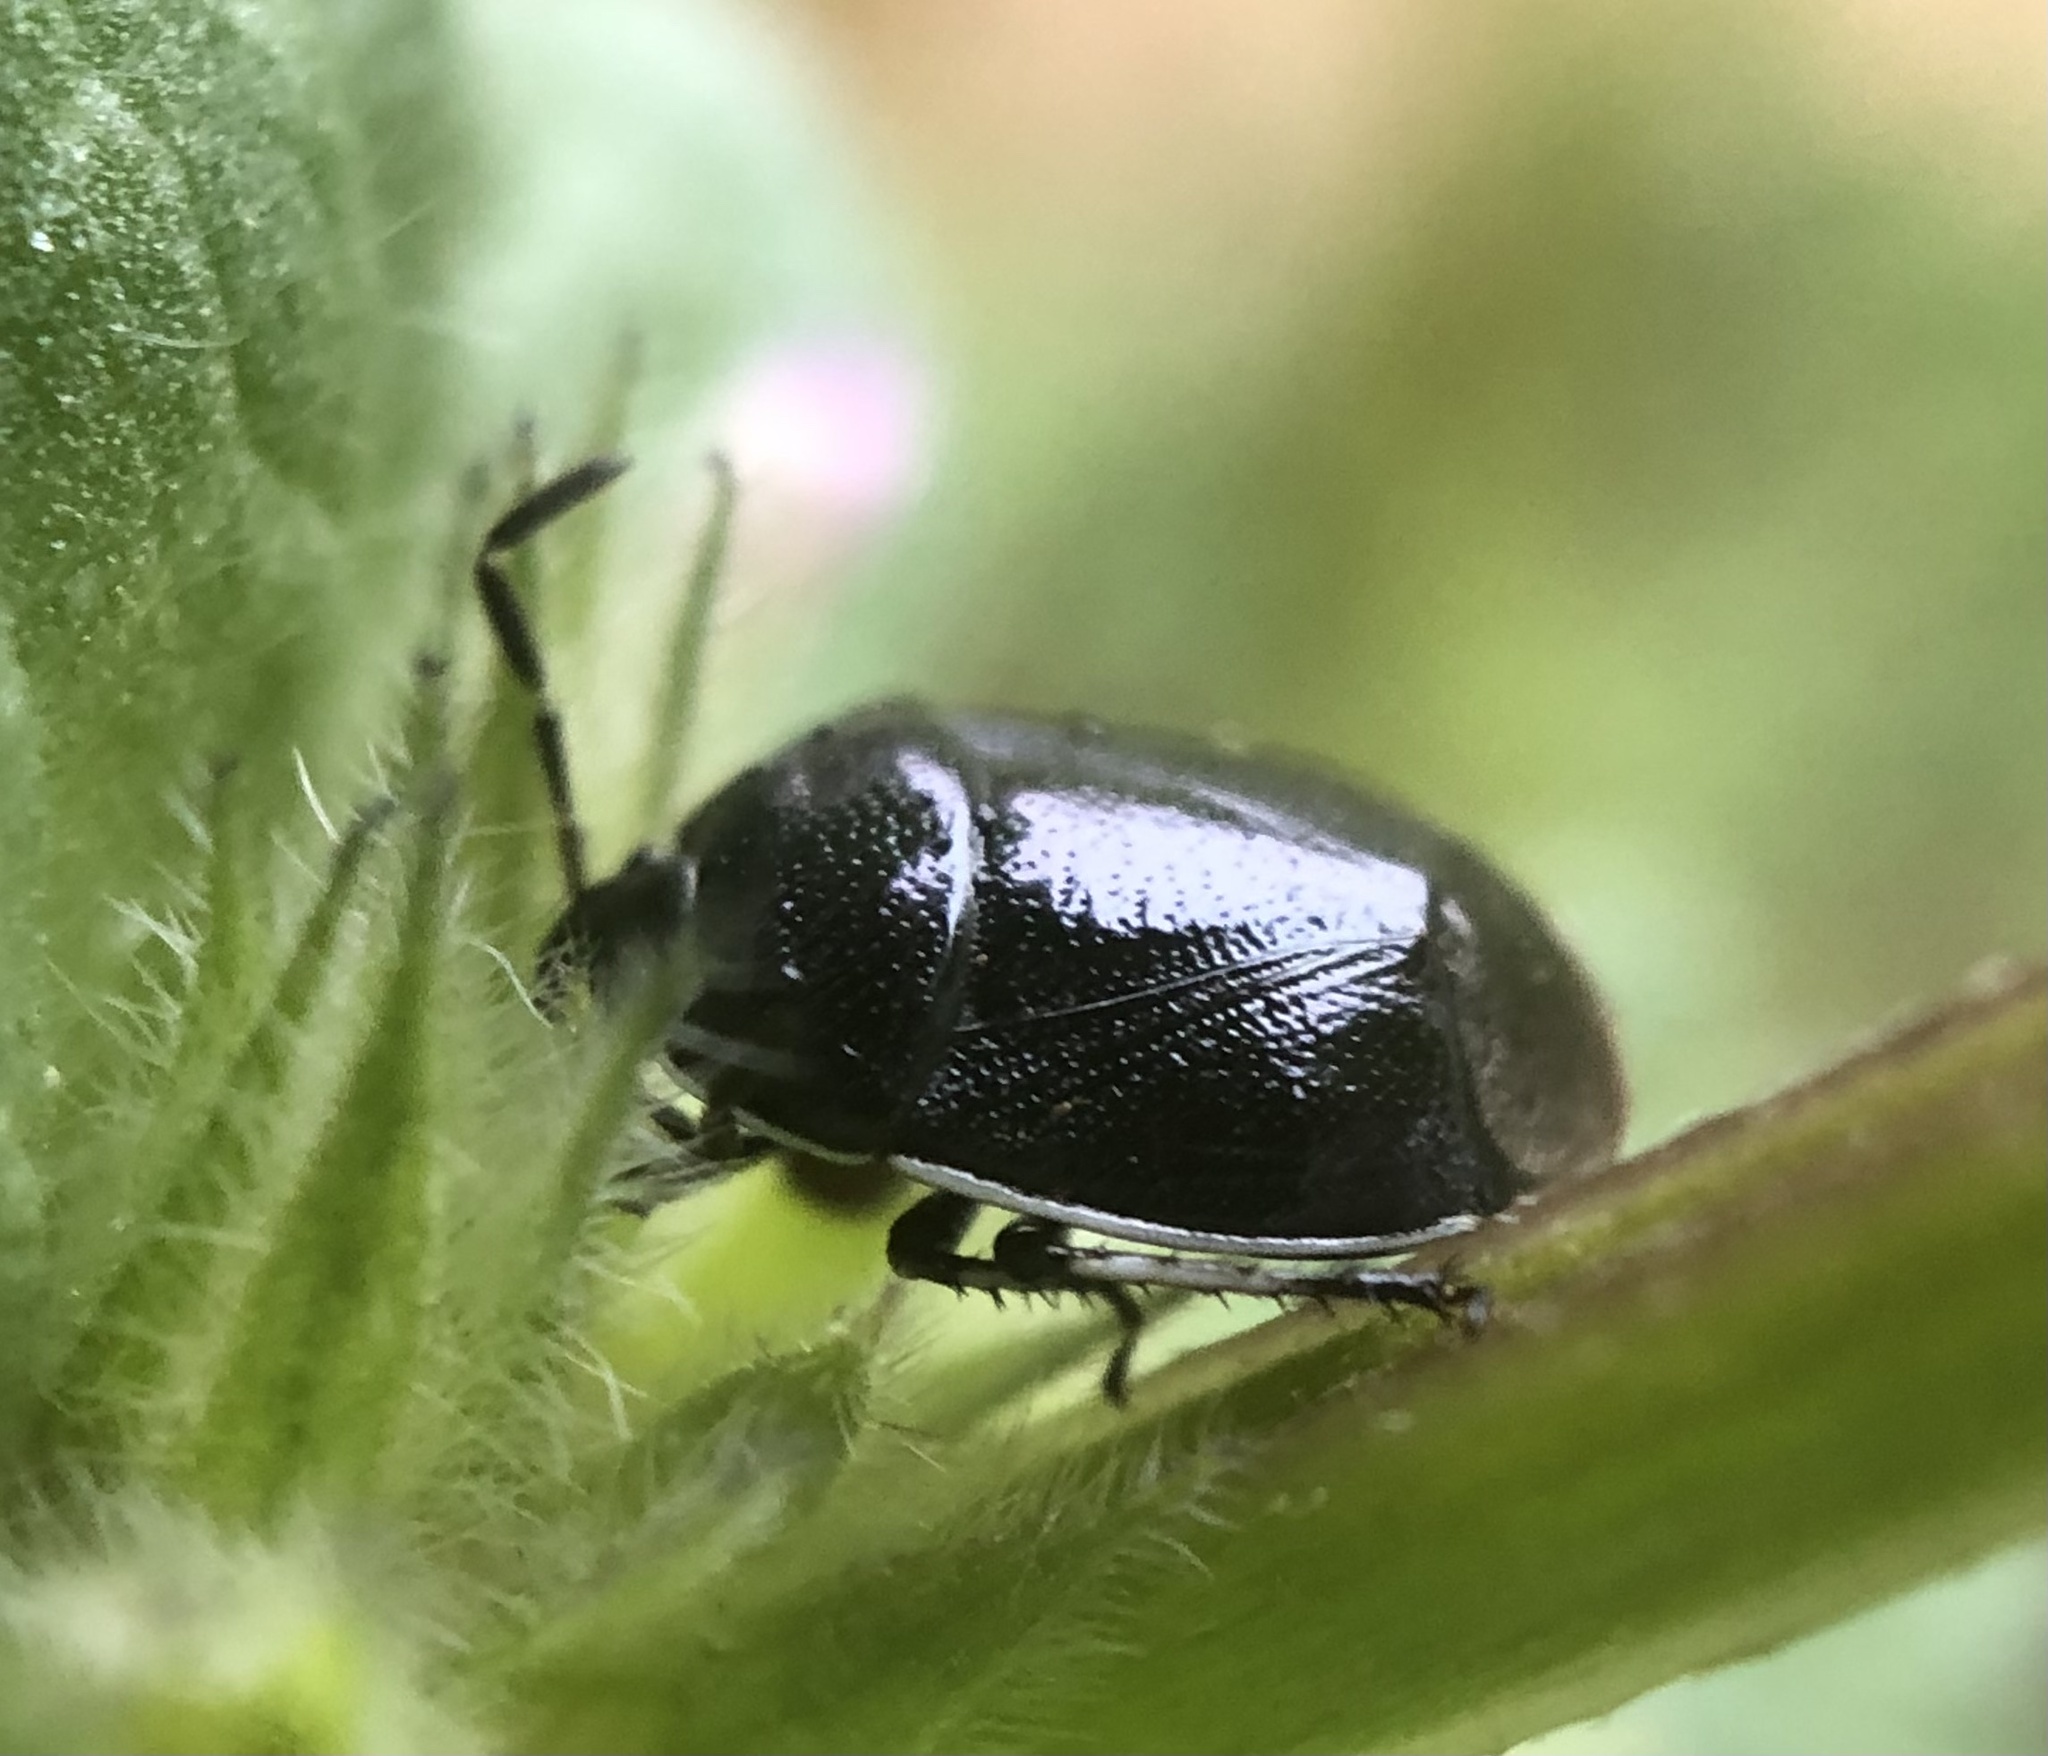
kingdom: Animalia
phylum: Arthropoda
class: Insecta
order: Hemiptera
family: Cydnidae
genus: Sehirus
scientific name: Sehirus cinctus
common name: White-margined burrower bug
